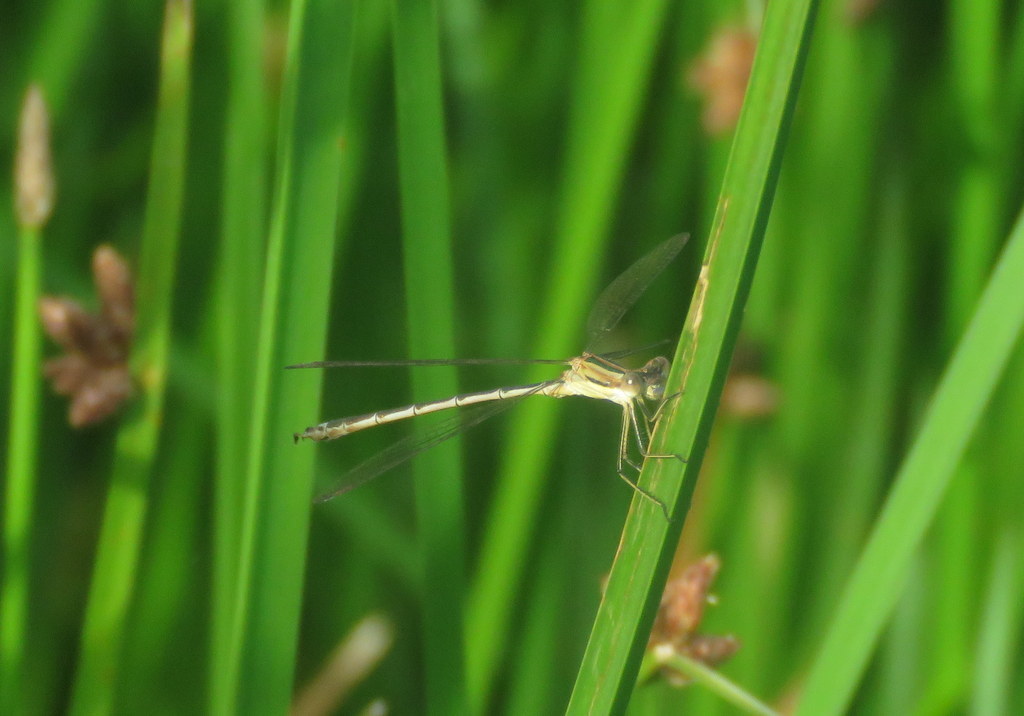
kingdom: Animalia
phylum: Arthropoda
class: Insecta
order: Odonata
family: Lestidae
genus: Lestes
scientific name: Lestes undulatus
